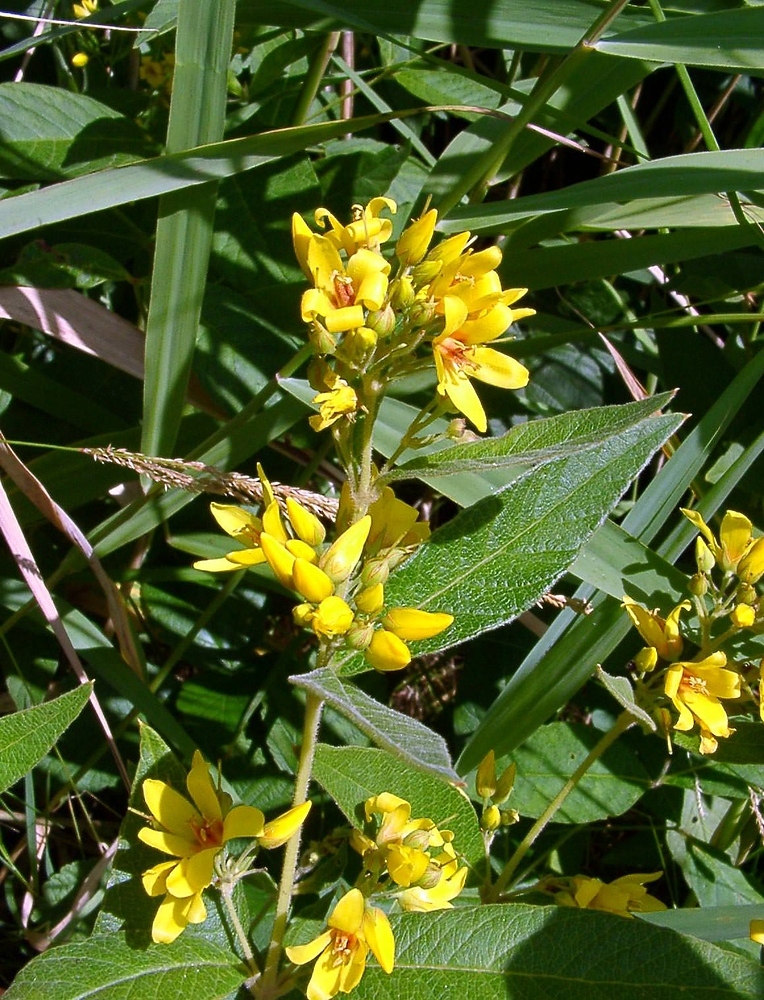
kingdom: Plantae
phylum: Tracheophyta
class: Magnoliopsida
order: Ericales
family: Primulaceae
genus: Lysimachia
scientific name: Lysimachia vulgaris
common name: Yellow loosestrife
